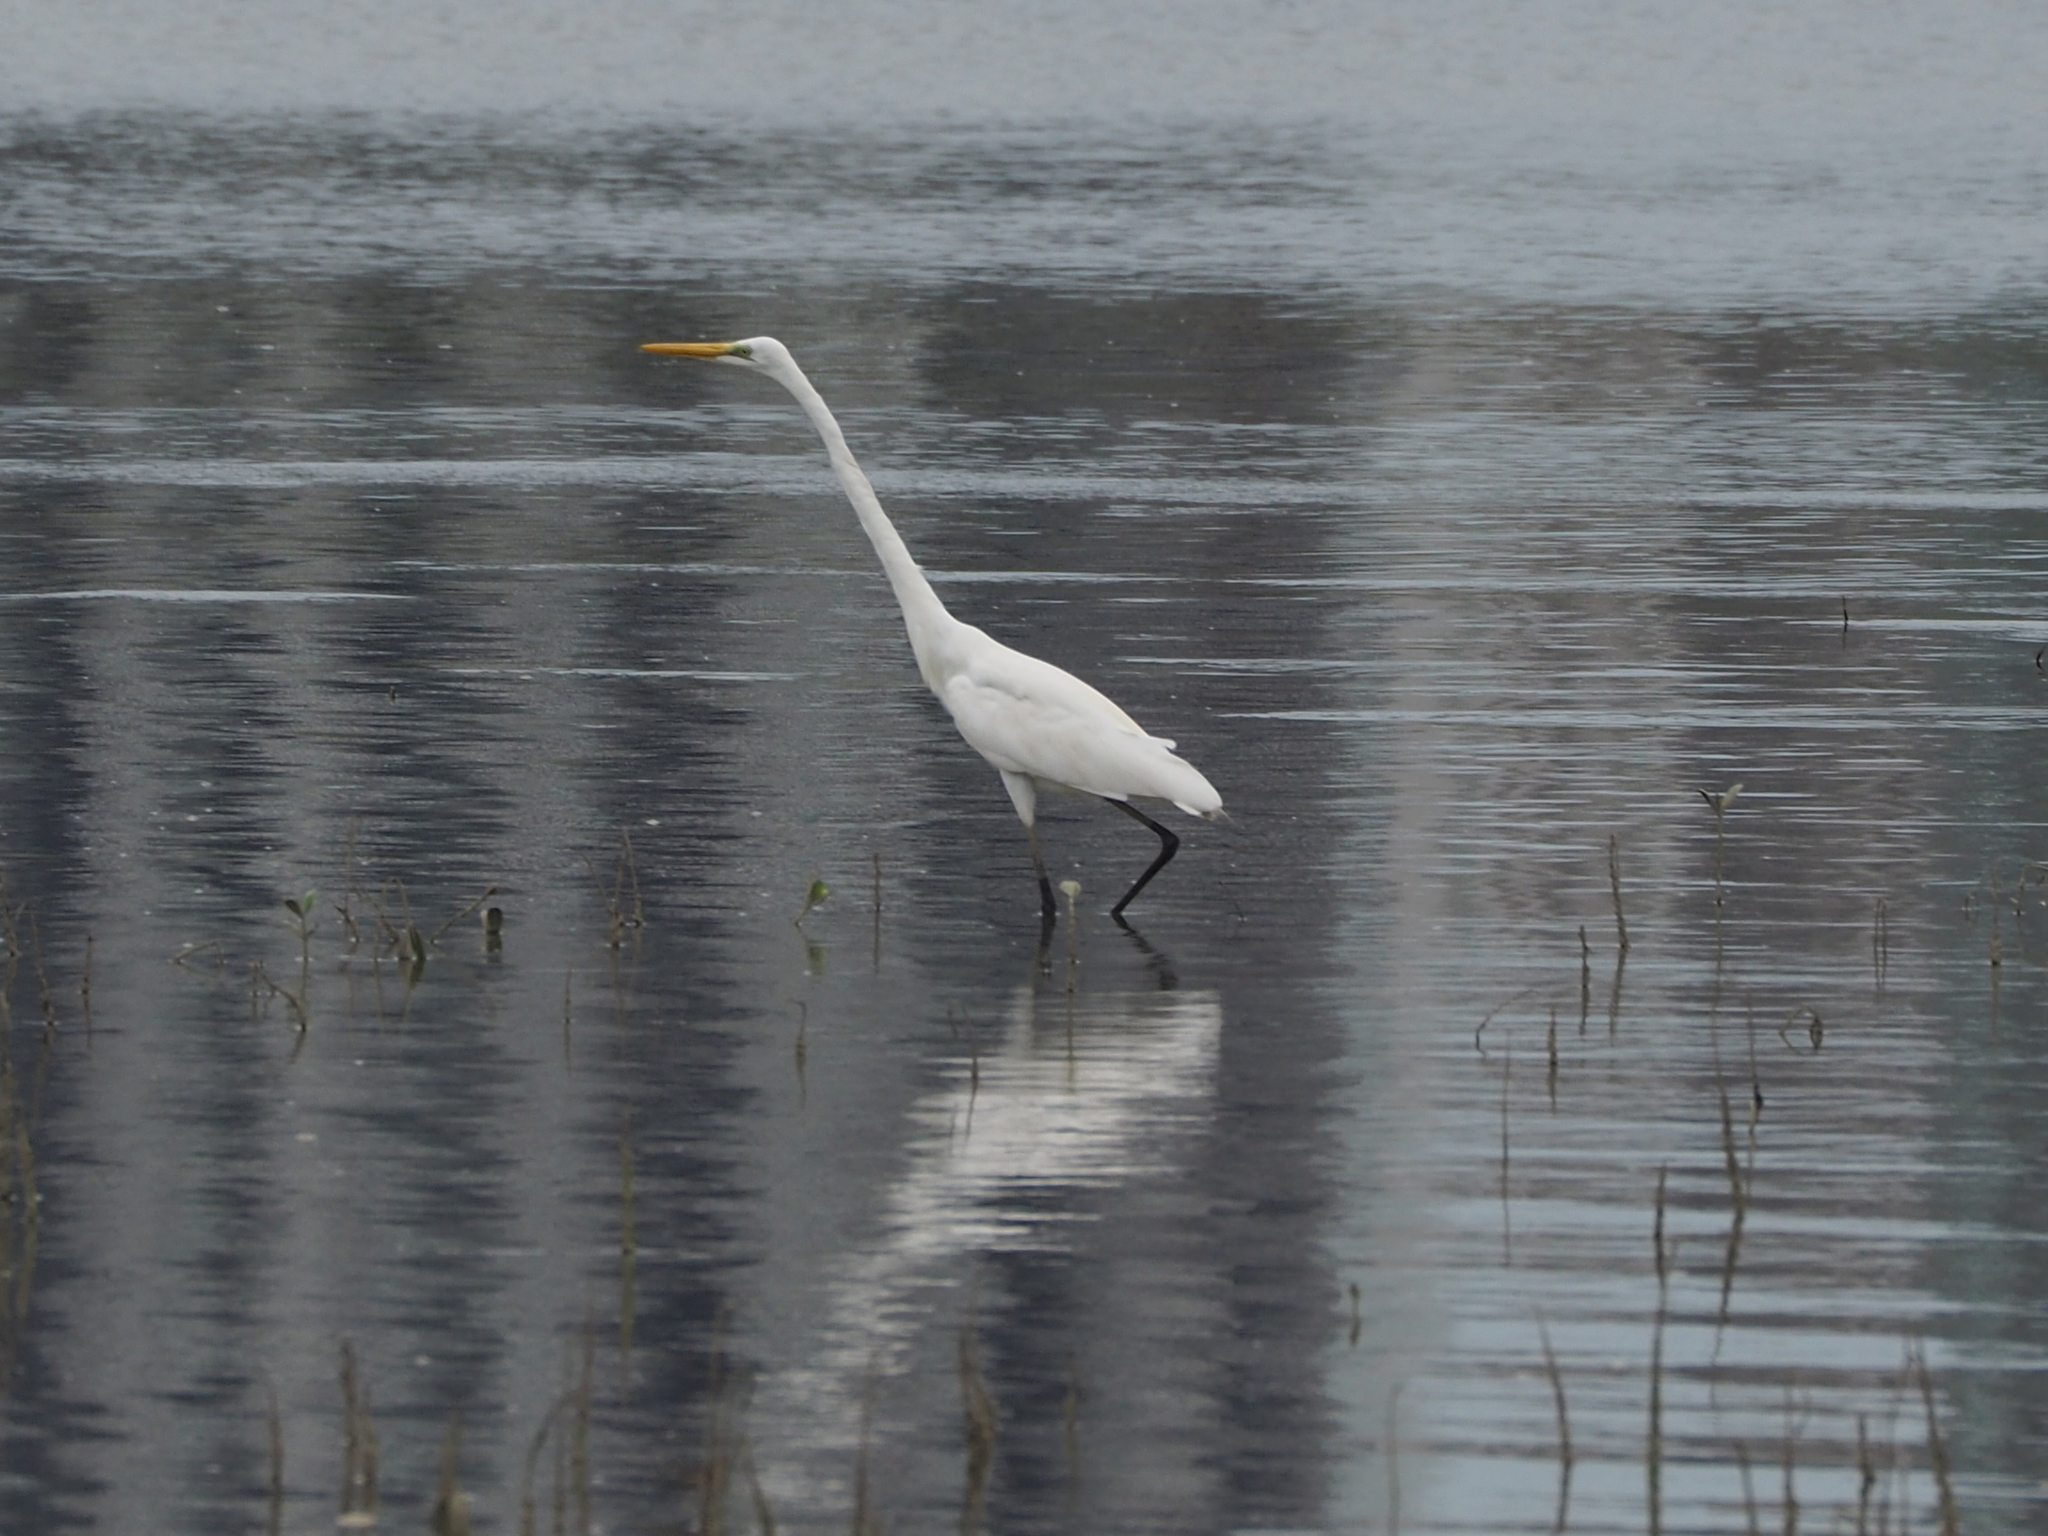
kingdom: Animalia
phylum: Chordata
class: Aves
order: Pelecaniformes
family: Ardeidae
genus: Ardea
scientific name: Ardea alba
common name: Great egret
